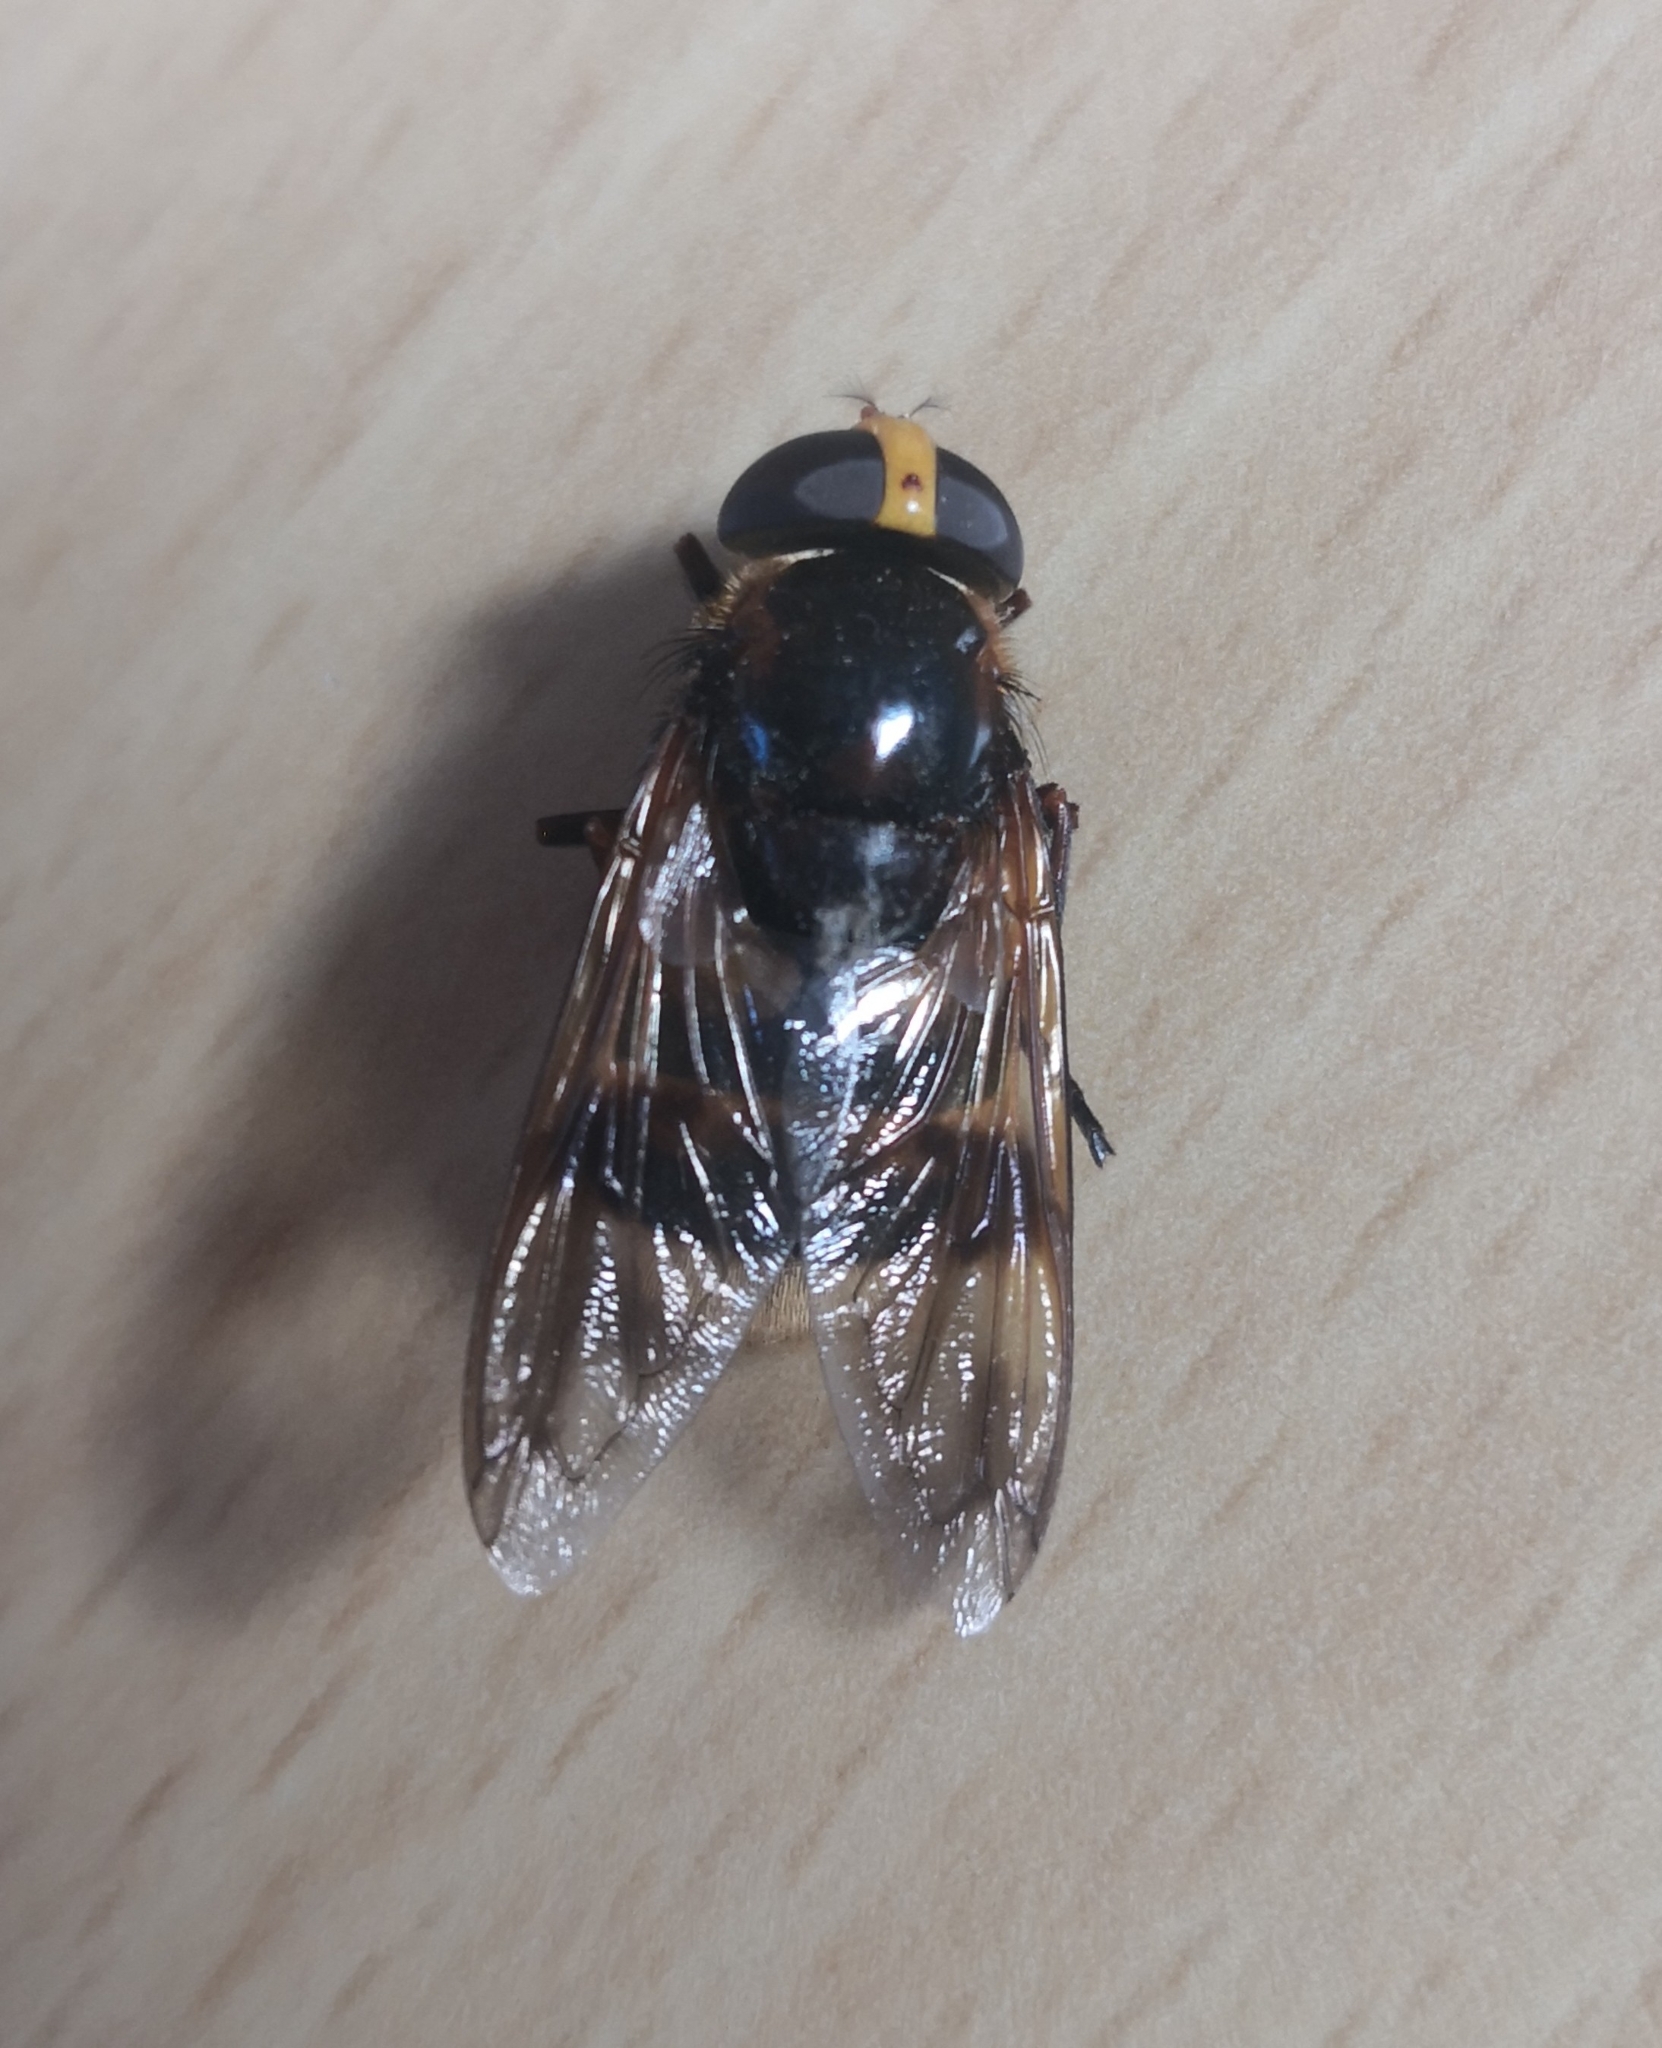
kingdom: Animalia
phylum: Arthropoda
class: Insecta
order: Diptera
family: Syrphidae
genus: Volucella
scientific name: Volucella elegans
